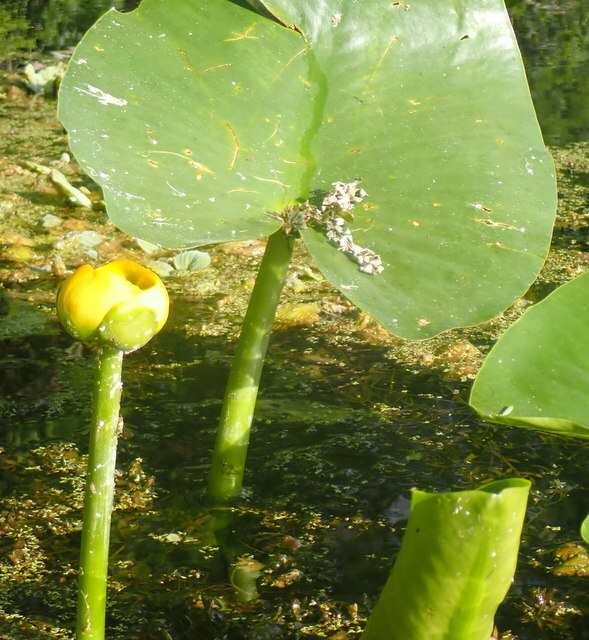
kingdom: Plantae
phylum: Tracheophyta
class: Magnoliopsida
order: Nymphaeales
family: Nymphaeaceae
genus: Nuphar
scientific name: Nuphar advena
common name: Spatter-dock
